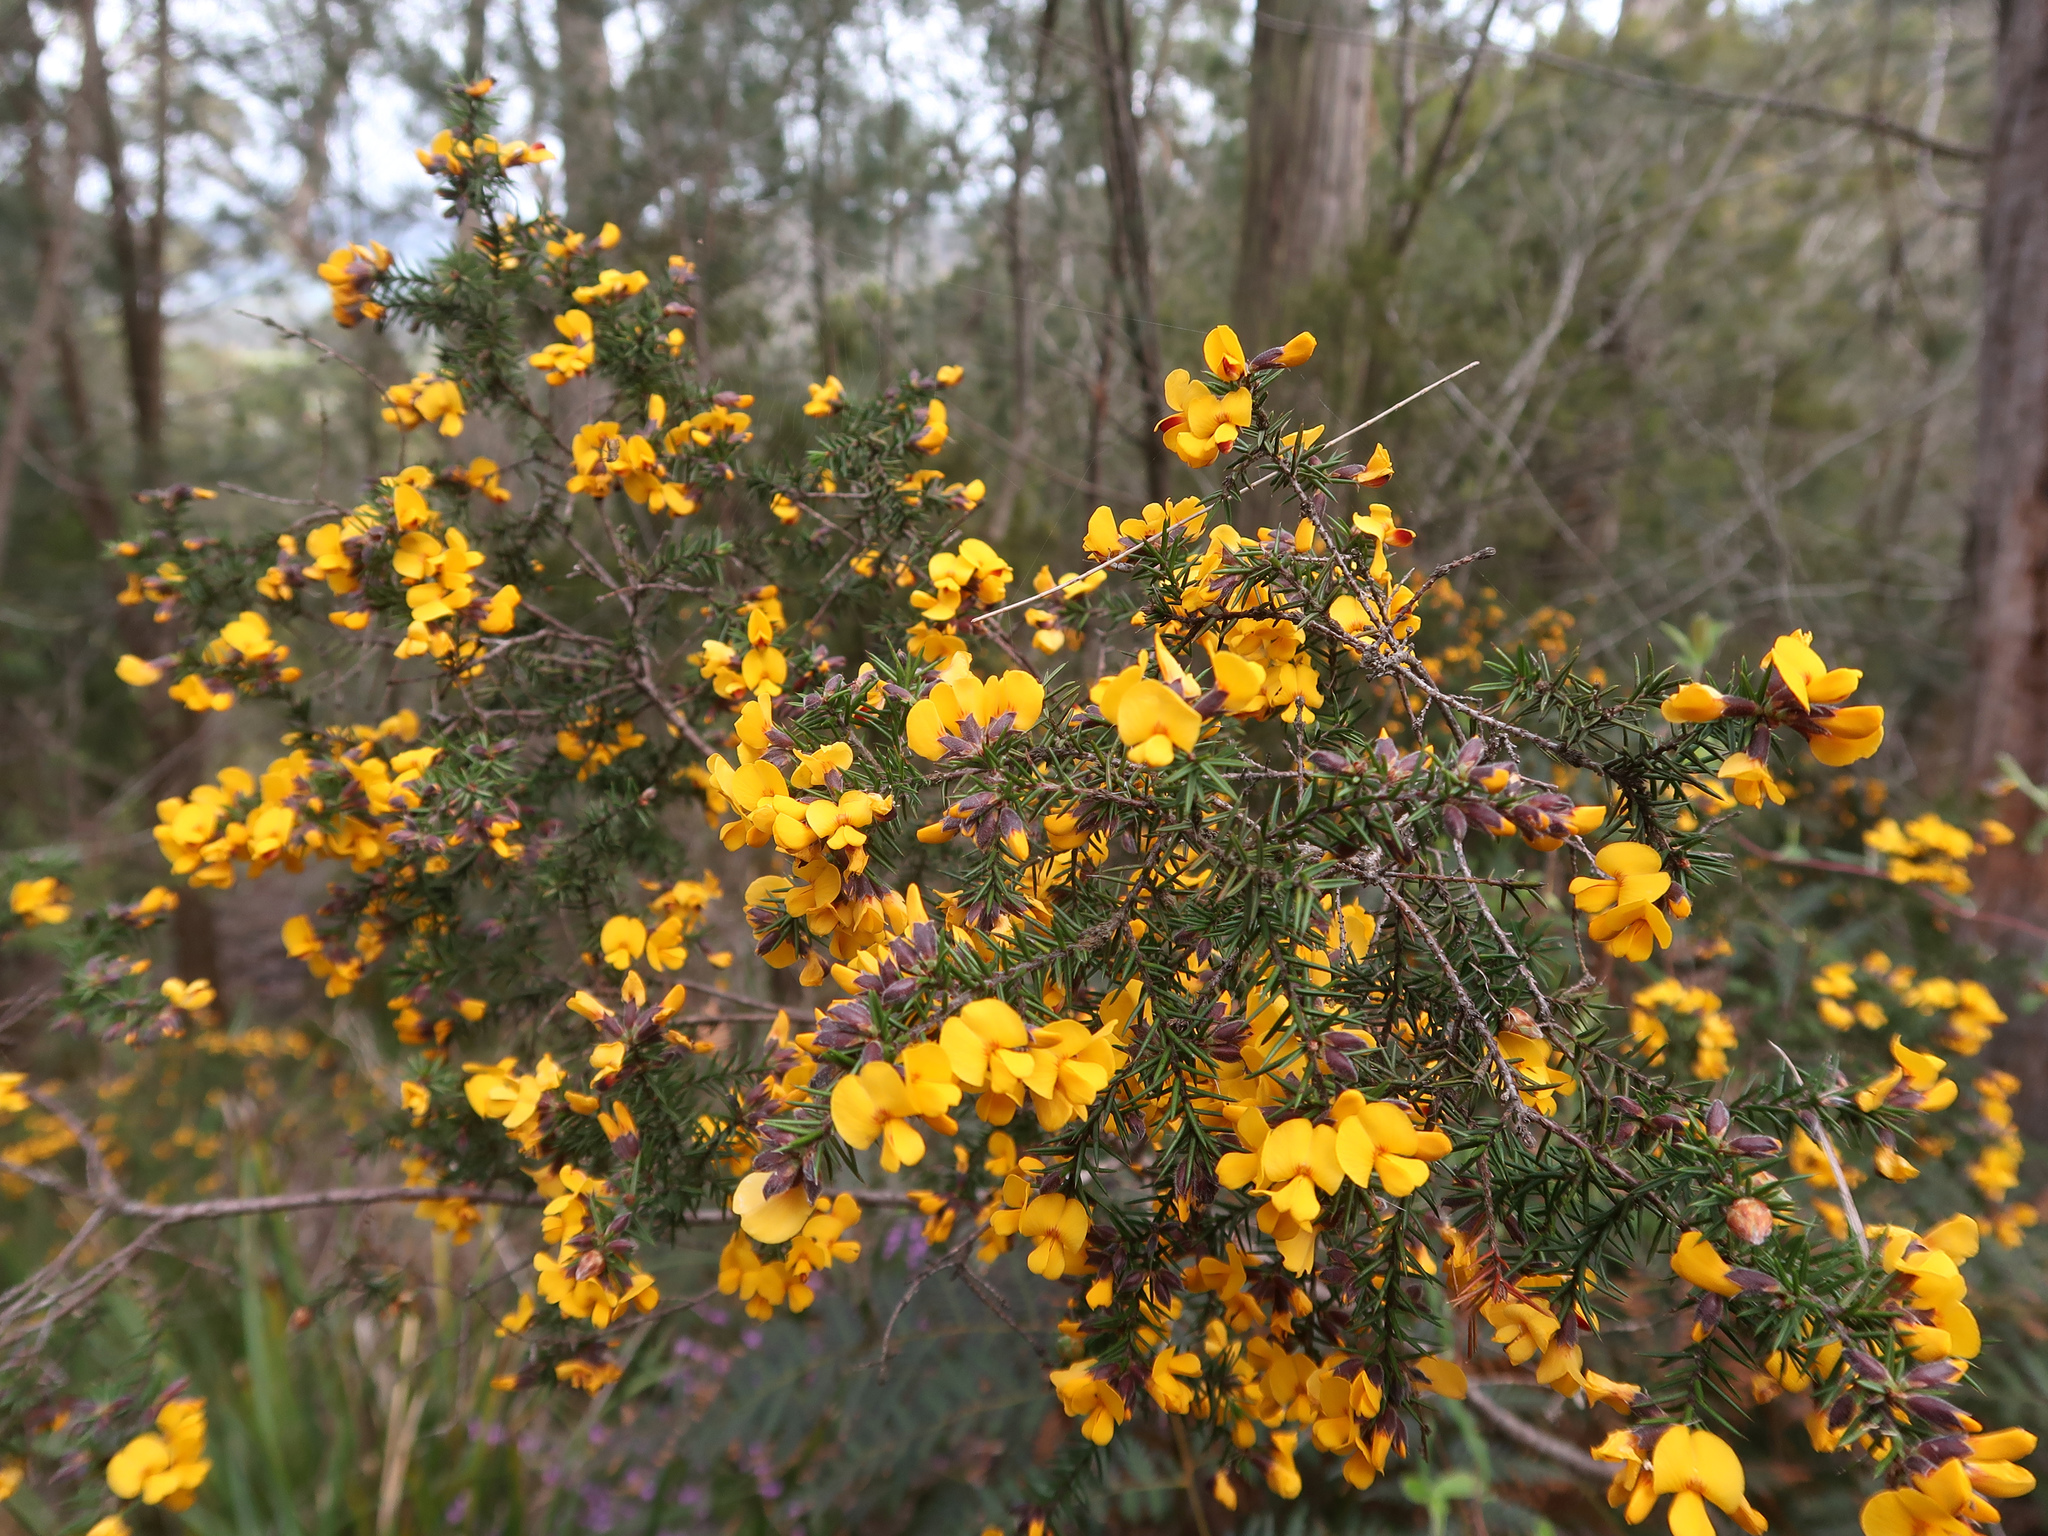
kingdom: Plantae
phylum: Tracheophyta
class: Magnoliopsida
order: Fabales
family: Fabaceae
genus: Pultenaea
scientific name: Pultenaea juniperina
